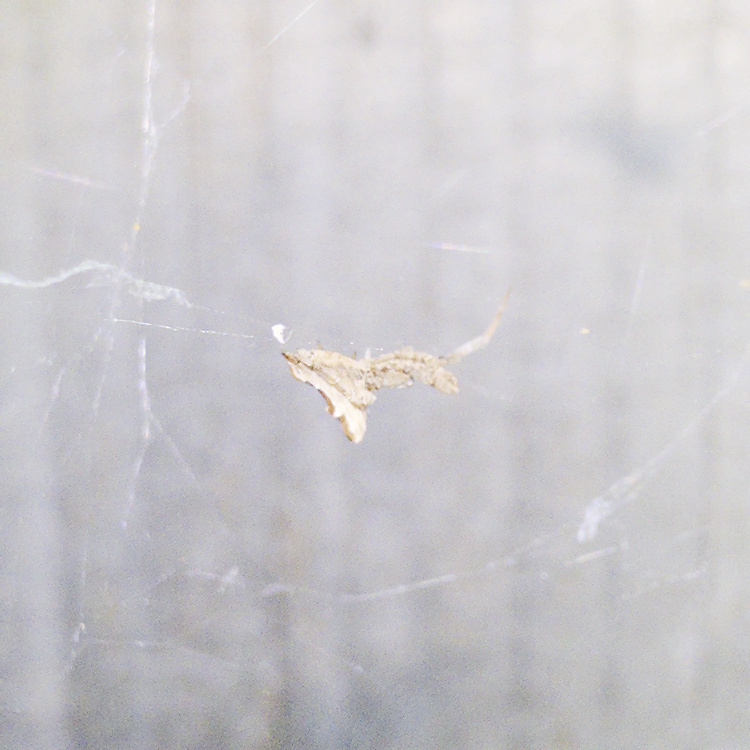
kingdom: Animalia
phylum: Arthropoda
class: Arachnida
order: Araneae
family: Uloboridae
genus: Philoponella
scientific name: Philoponella congregabilis
